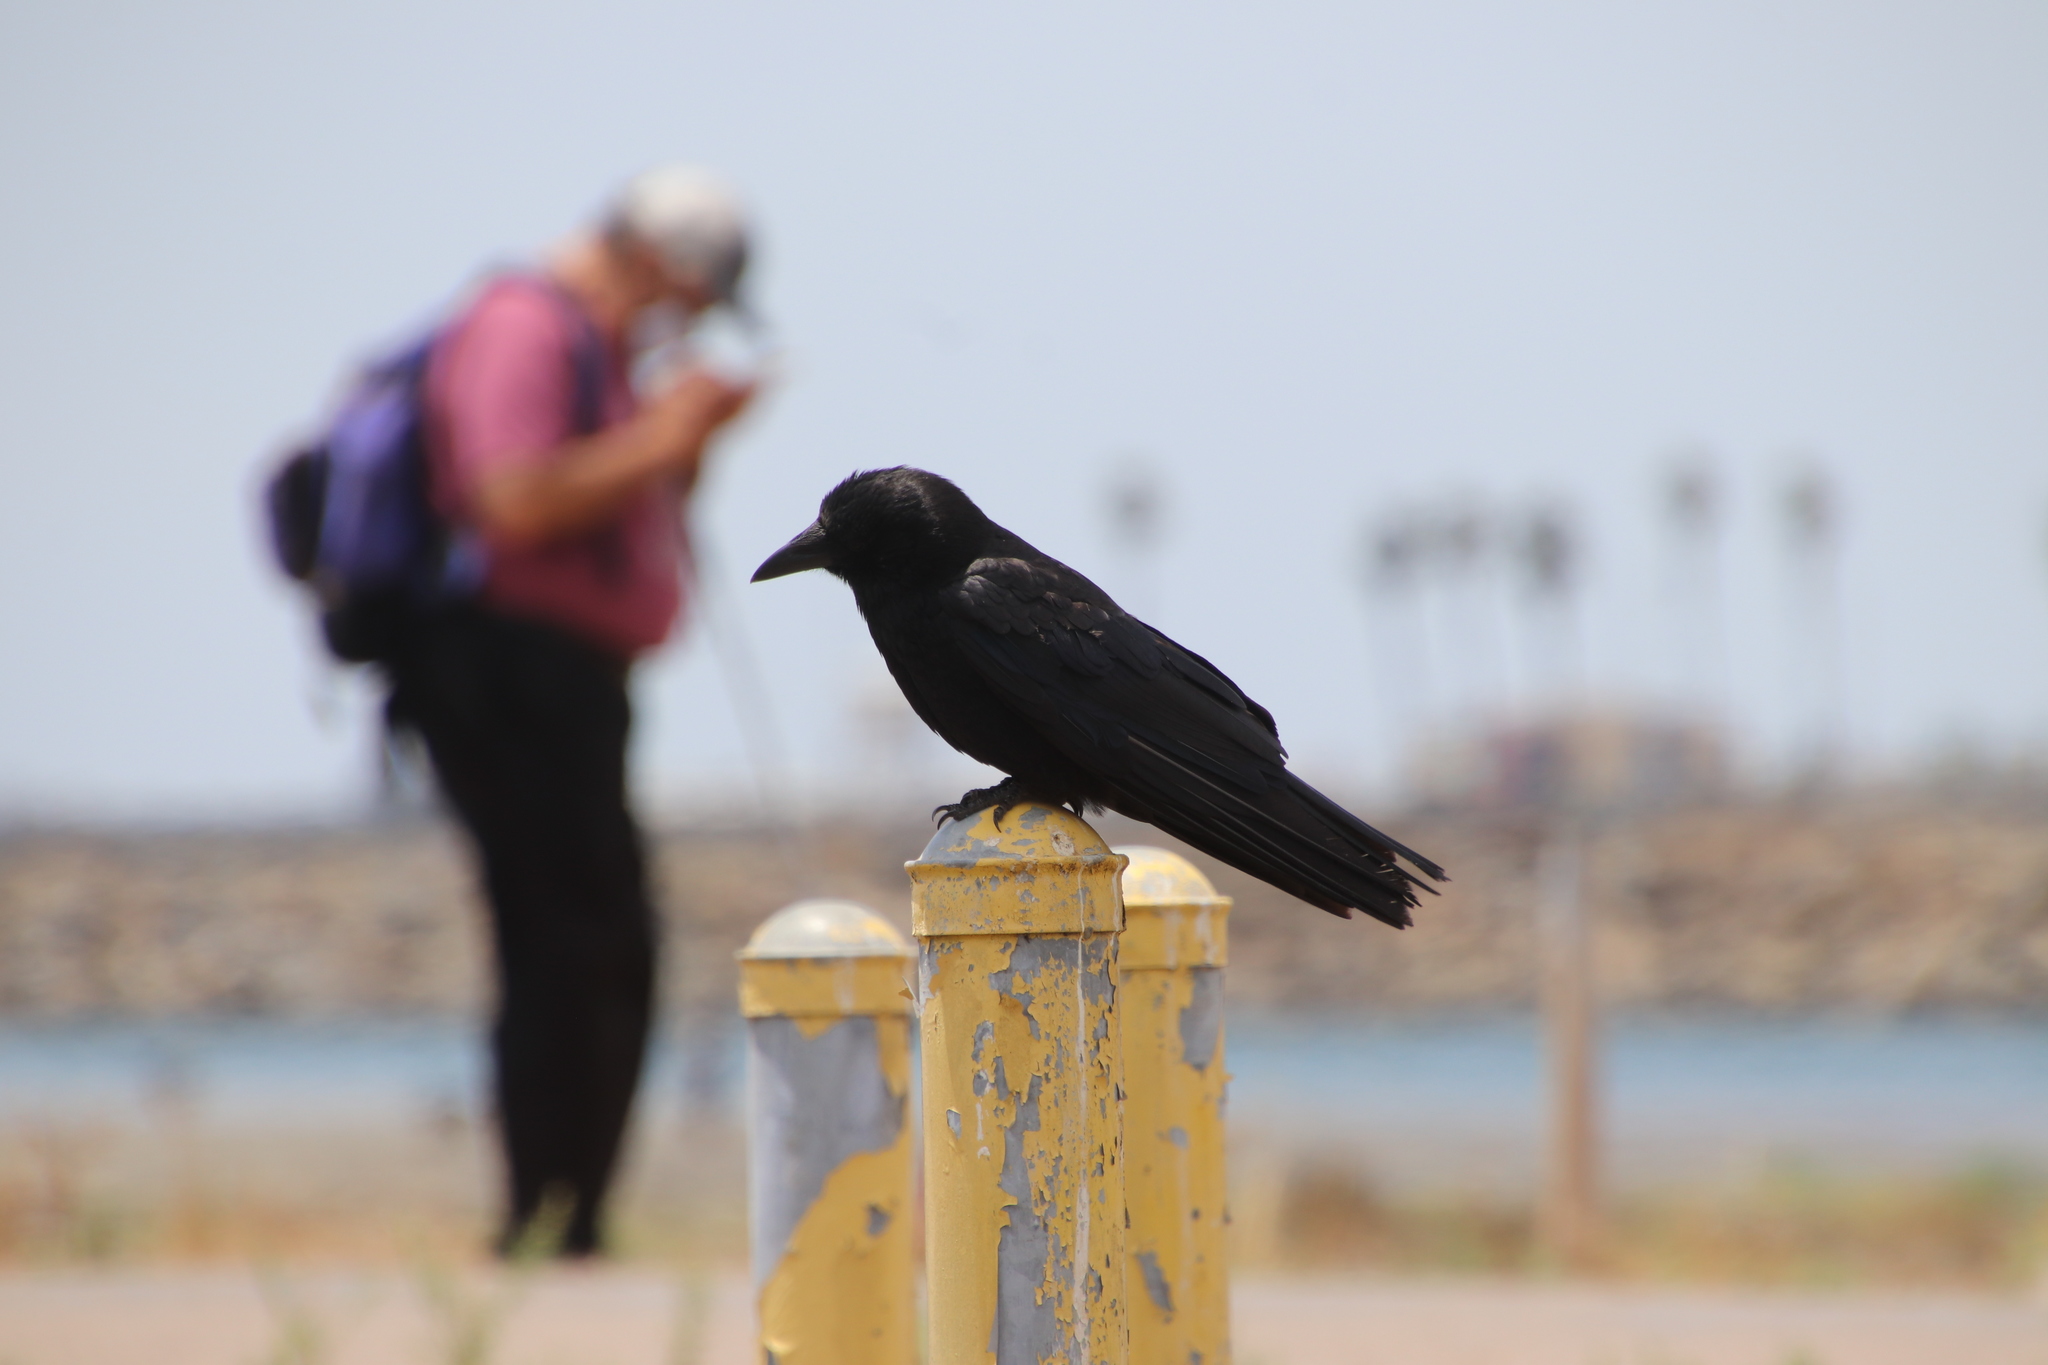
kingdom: Animalia
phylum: Chordata
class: Aves
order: Passeriformes
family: Corvidae
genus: Corvus
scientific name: Corvus brachyrhynchos
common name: American crow
